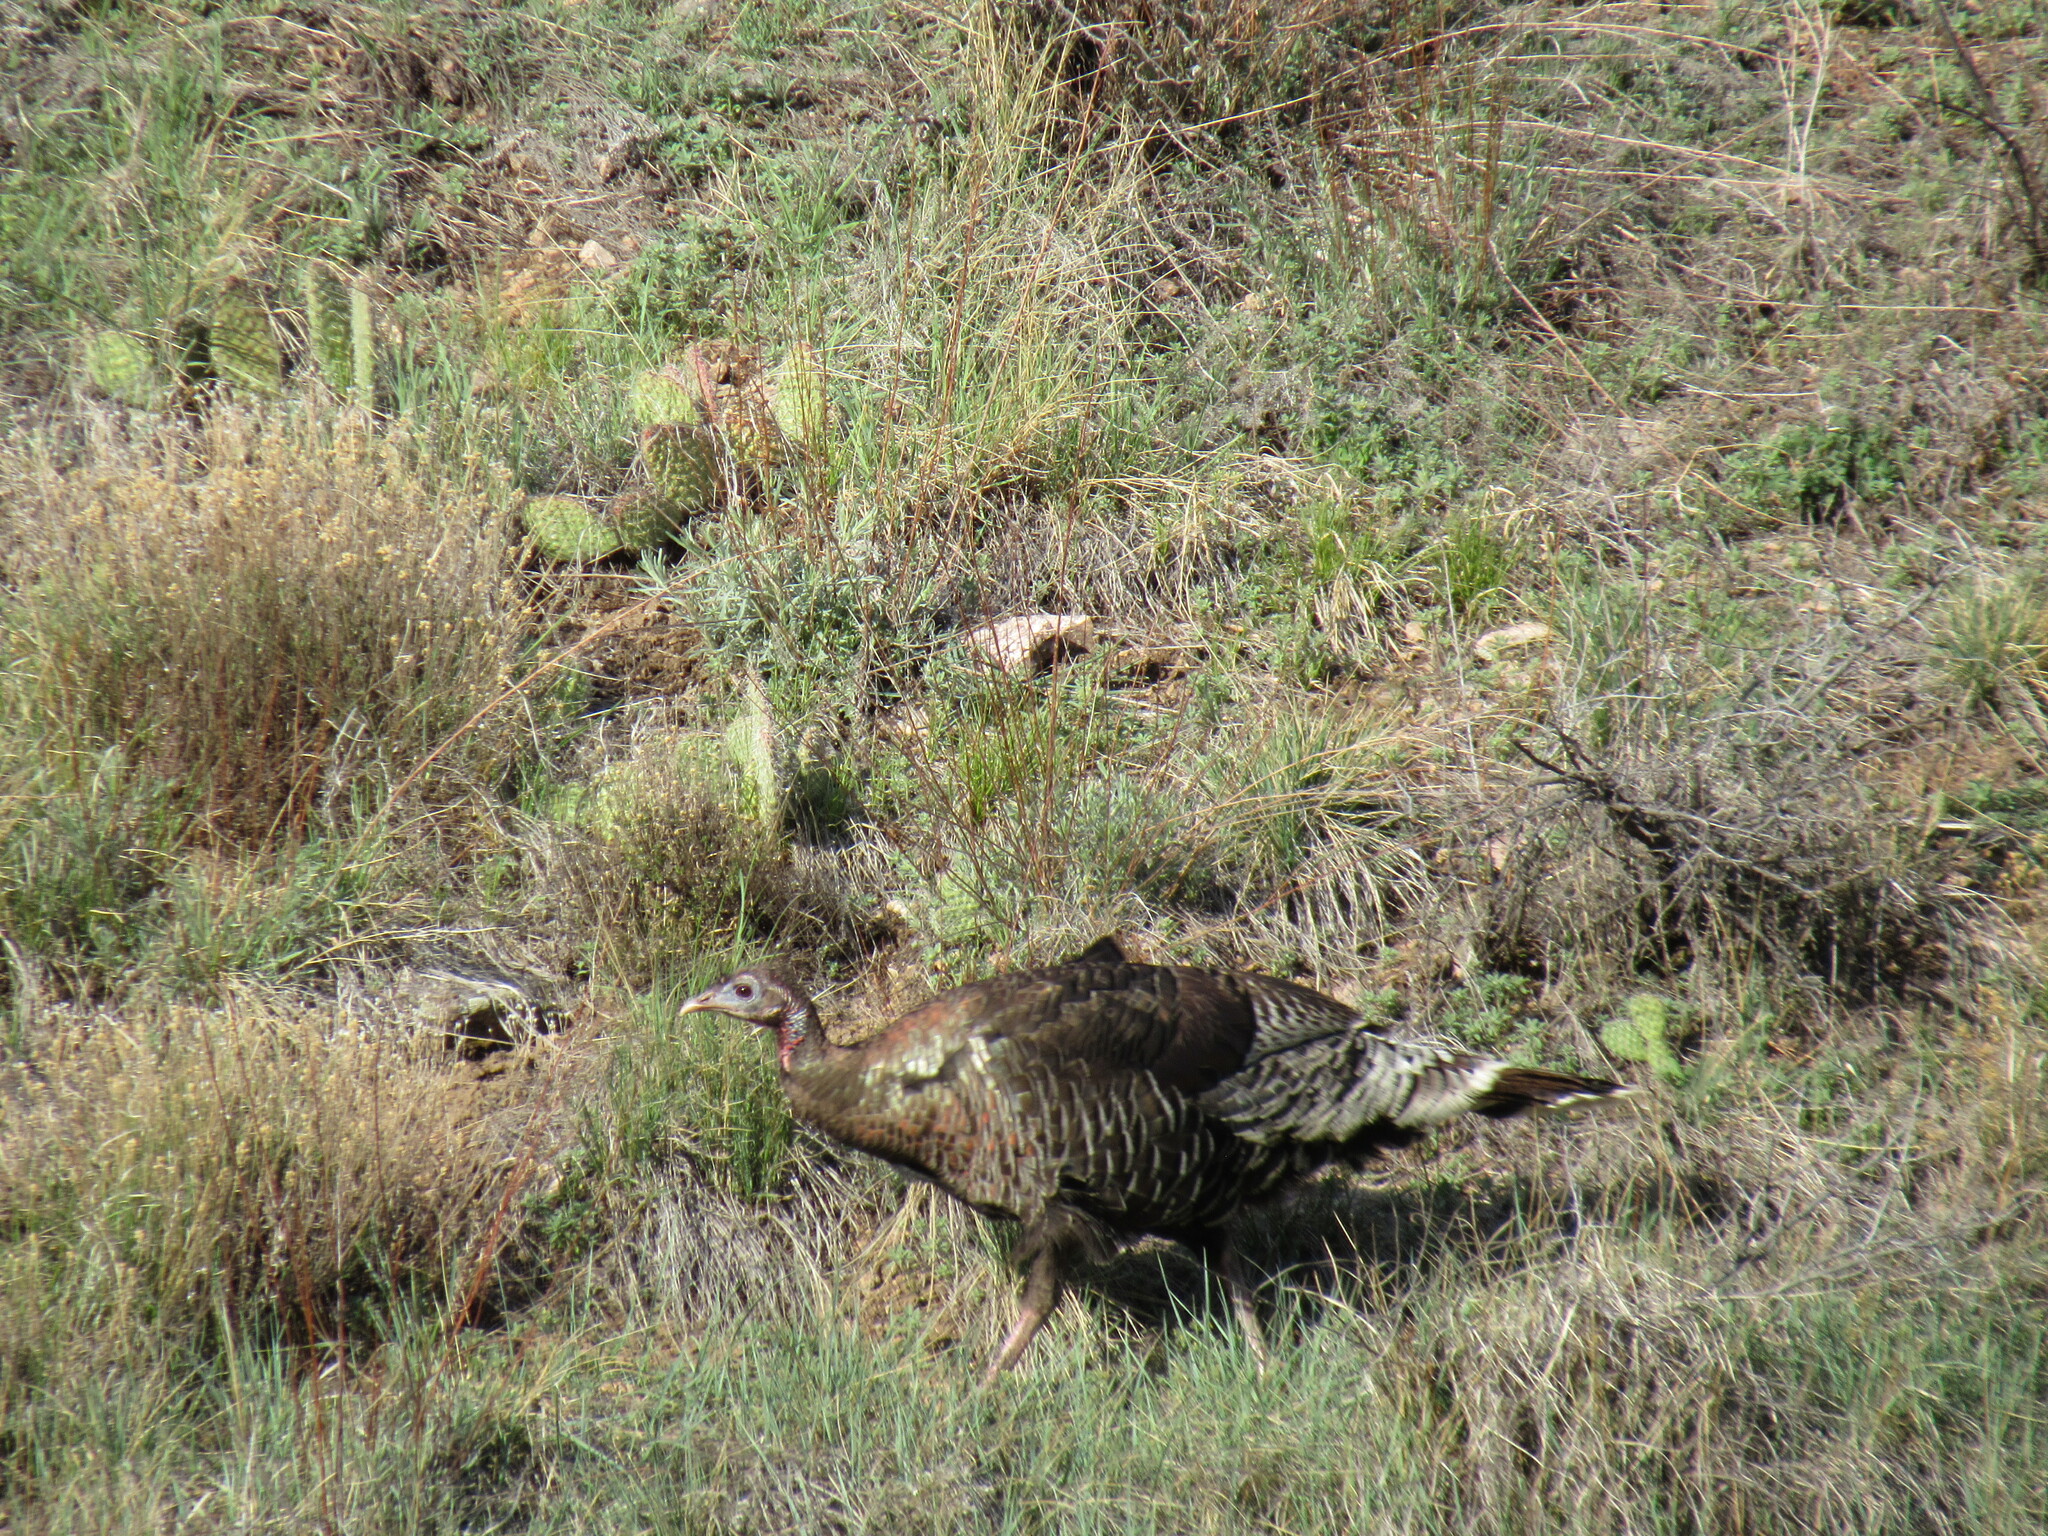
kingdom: Animalia
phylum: Chordata
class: Aves
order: Galliformes
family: Phasianidae
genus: Meleagris
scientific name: Meleagris gallopavo
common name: Wild turkey
